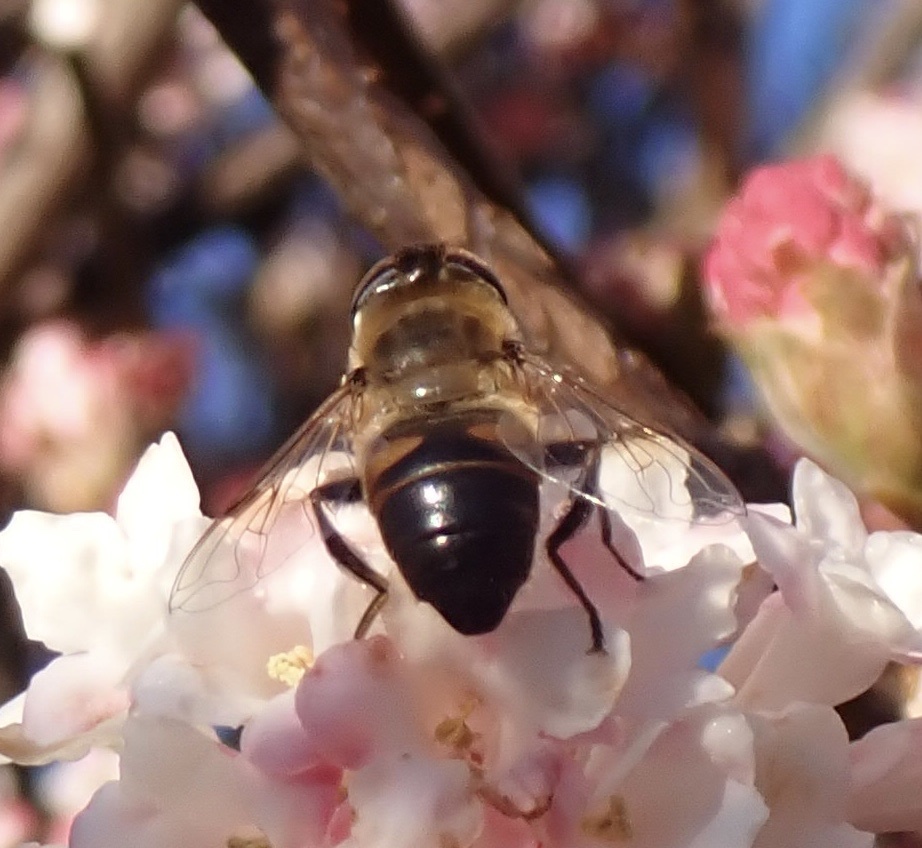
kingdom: Animalia
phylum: Arthropoda
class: Insecta
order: Diptera
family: Syrphidae
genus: Eristalis
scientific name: Eristalis tenax
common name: Drone fly
